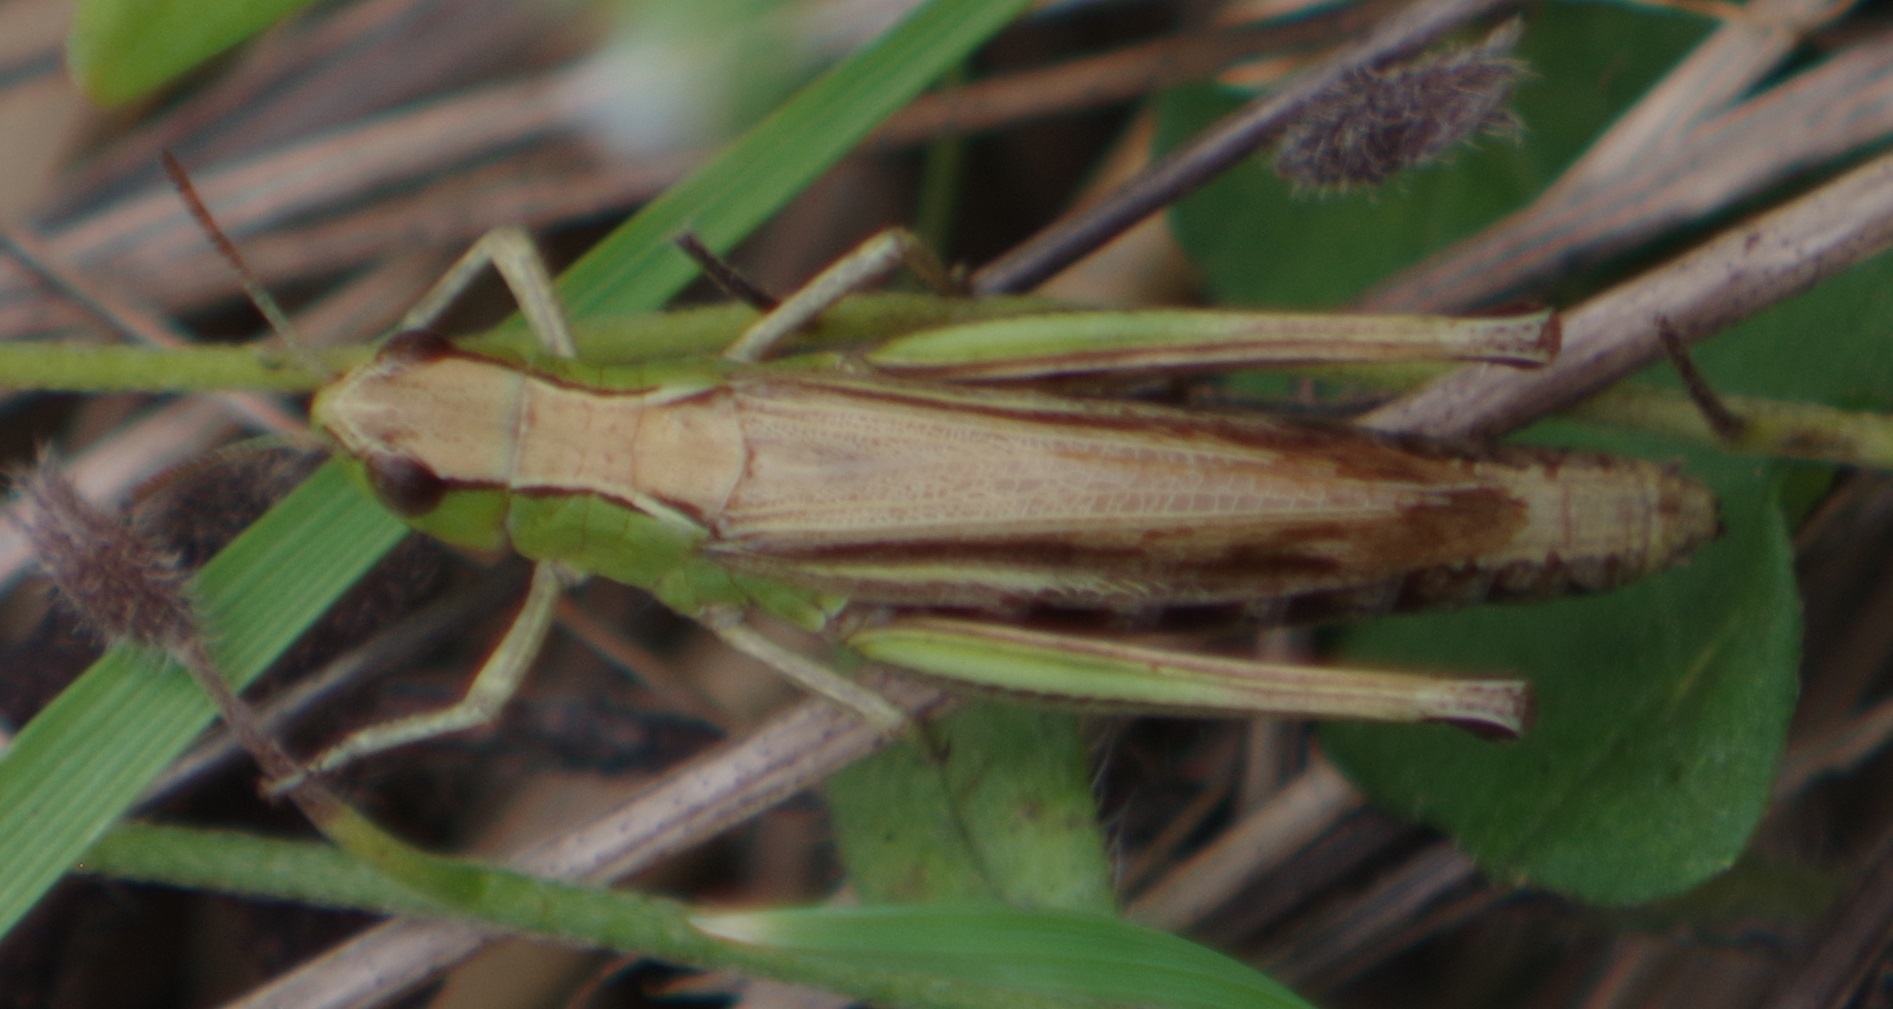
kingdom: Animalia
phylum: Arthropoda
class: Insecta
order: Orthoptera
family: Acrididae
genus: Pseudochorthippus
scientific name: Pseudochorthippus parallelus
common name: Meadow grasshopper
